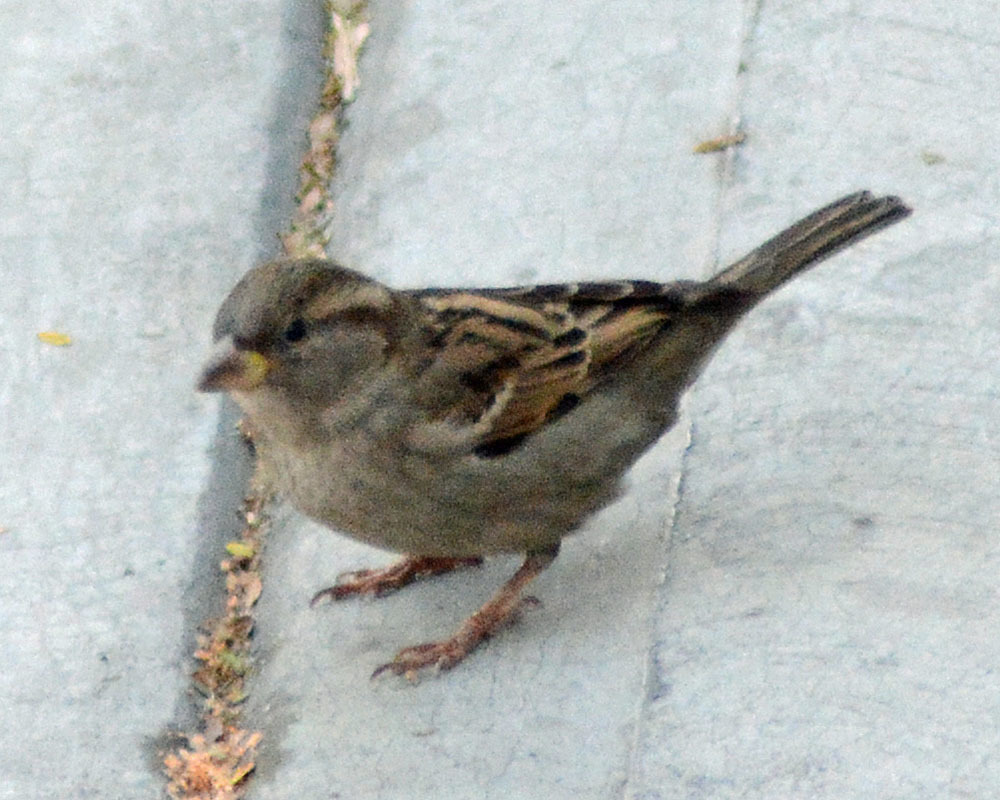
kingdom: Animalia
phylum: Chordata
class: Aves
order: Passeriformes
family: Passeridae
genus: Passer
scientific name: Passer domesticus
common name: House sparrow
